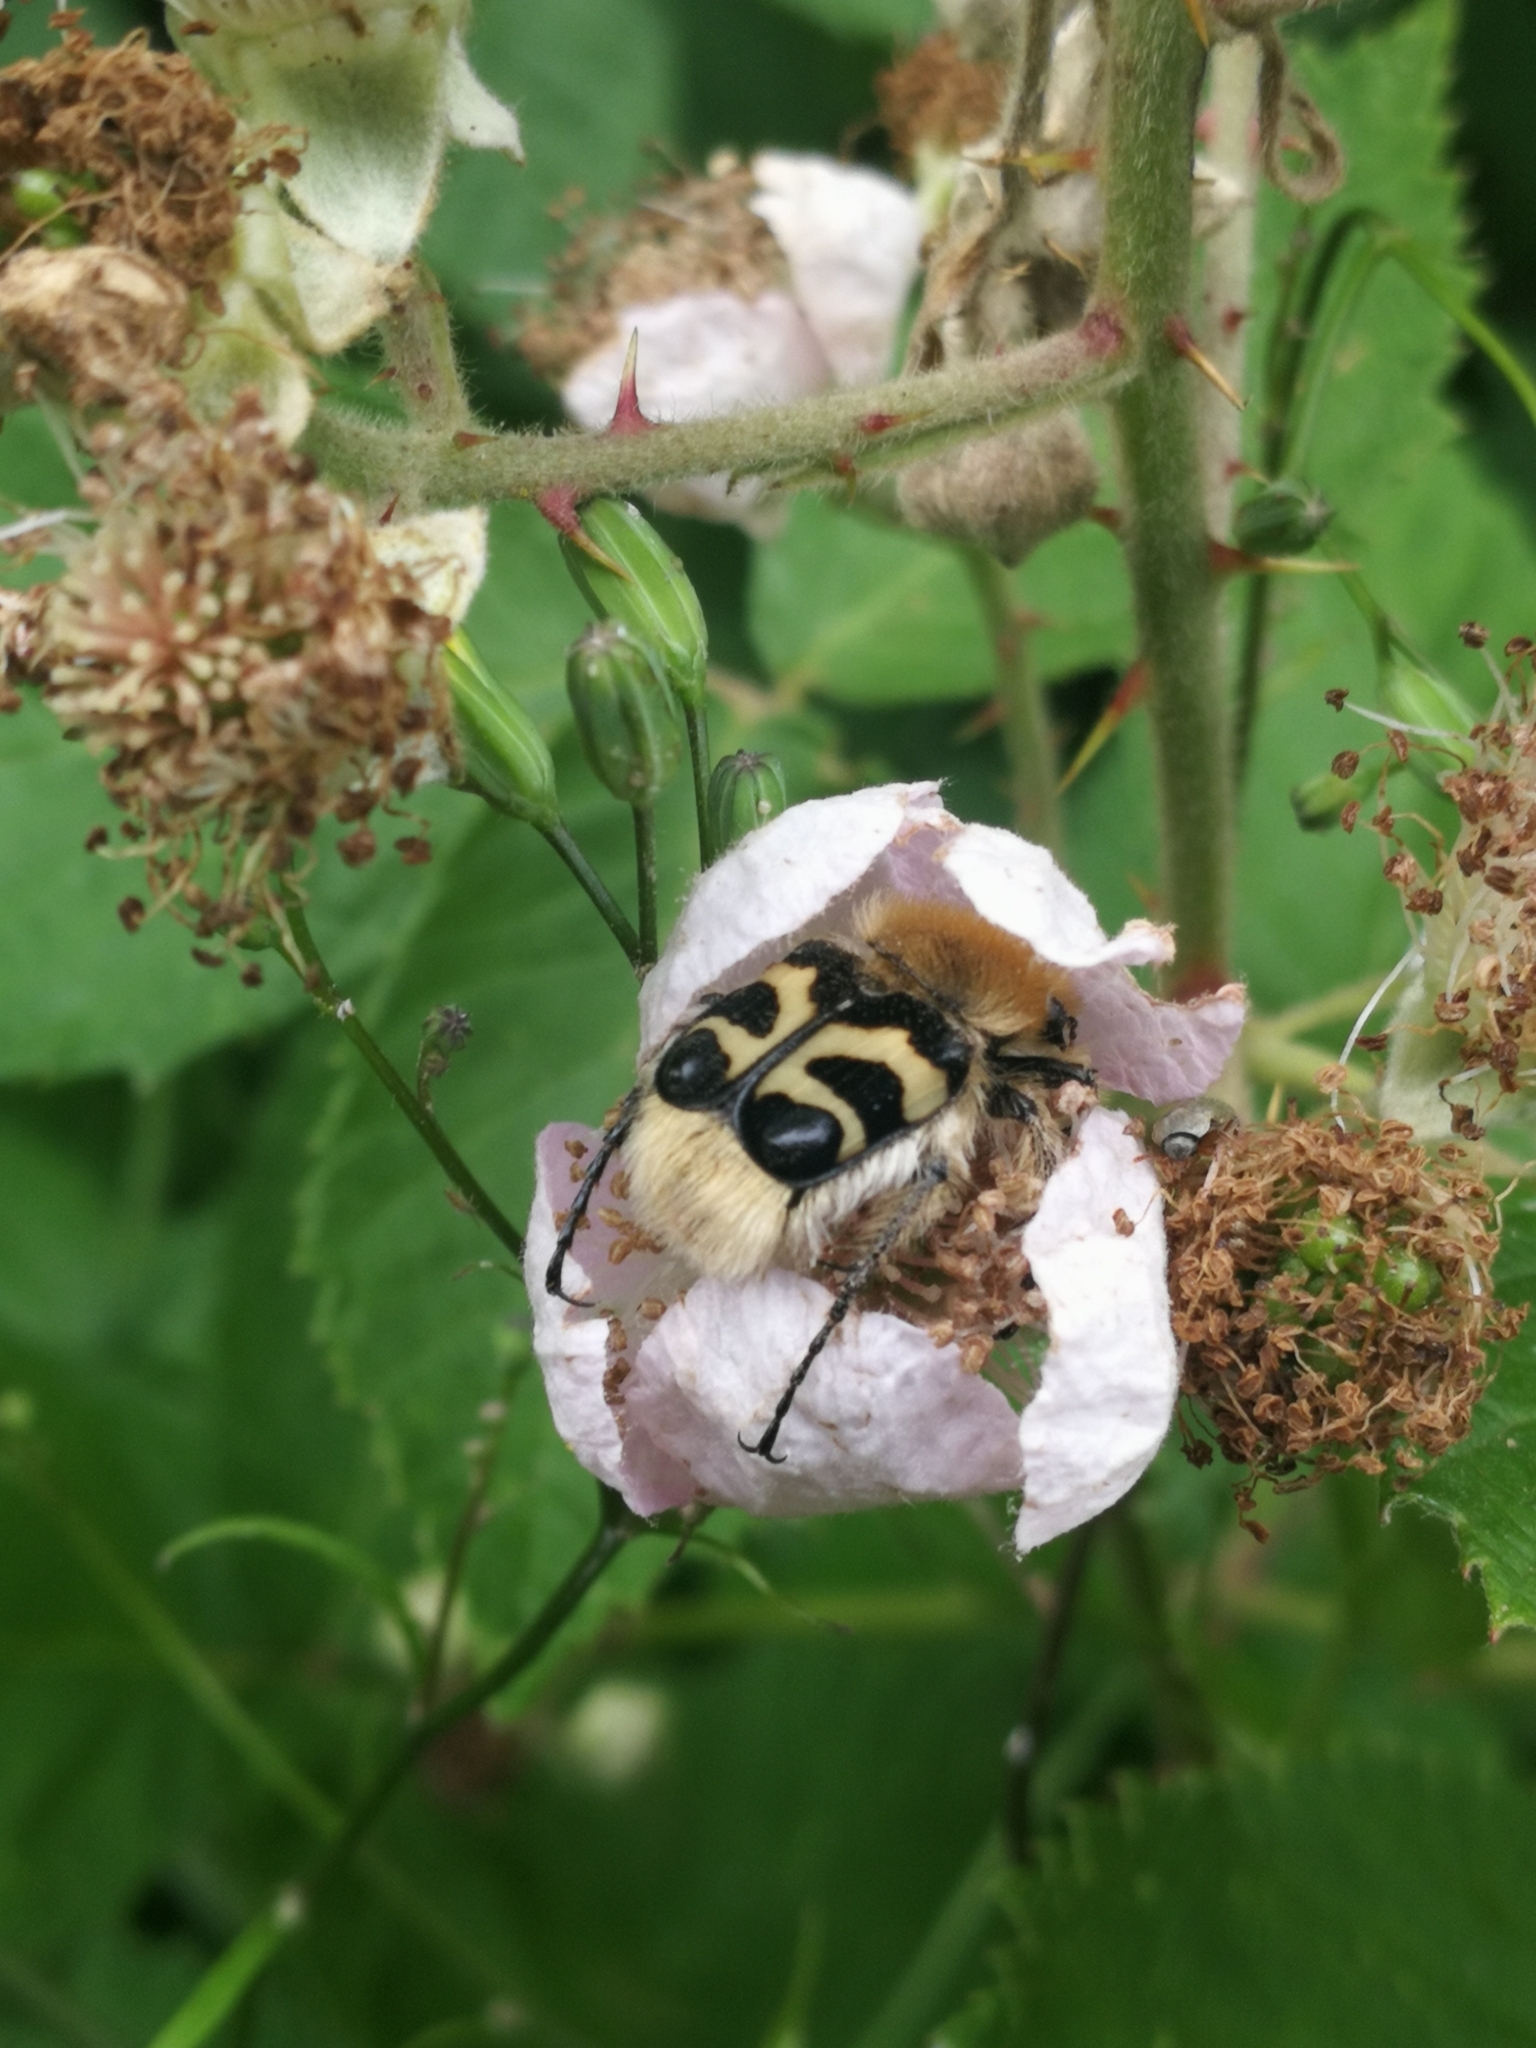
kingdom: Animalia
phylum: Arthropoda
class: Insecta
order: Coleoptera
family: Scarabaeidae
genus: Trichius
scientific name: Trichius fasciatus
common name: Bee beetle
